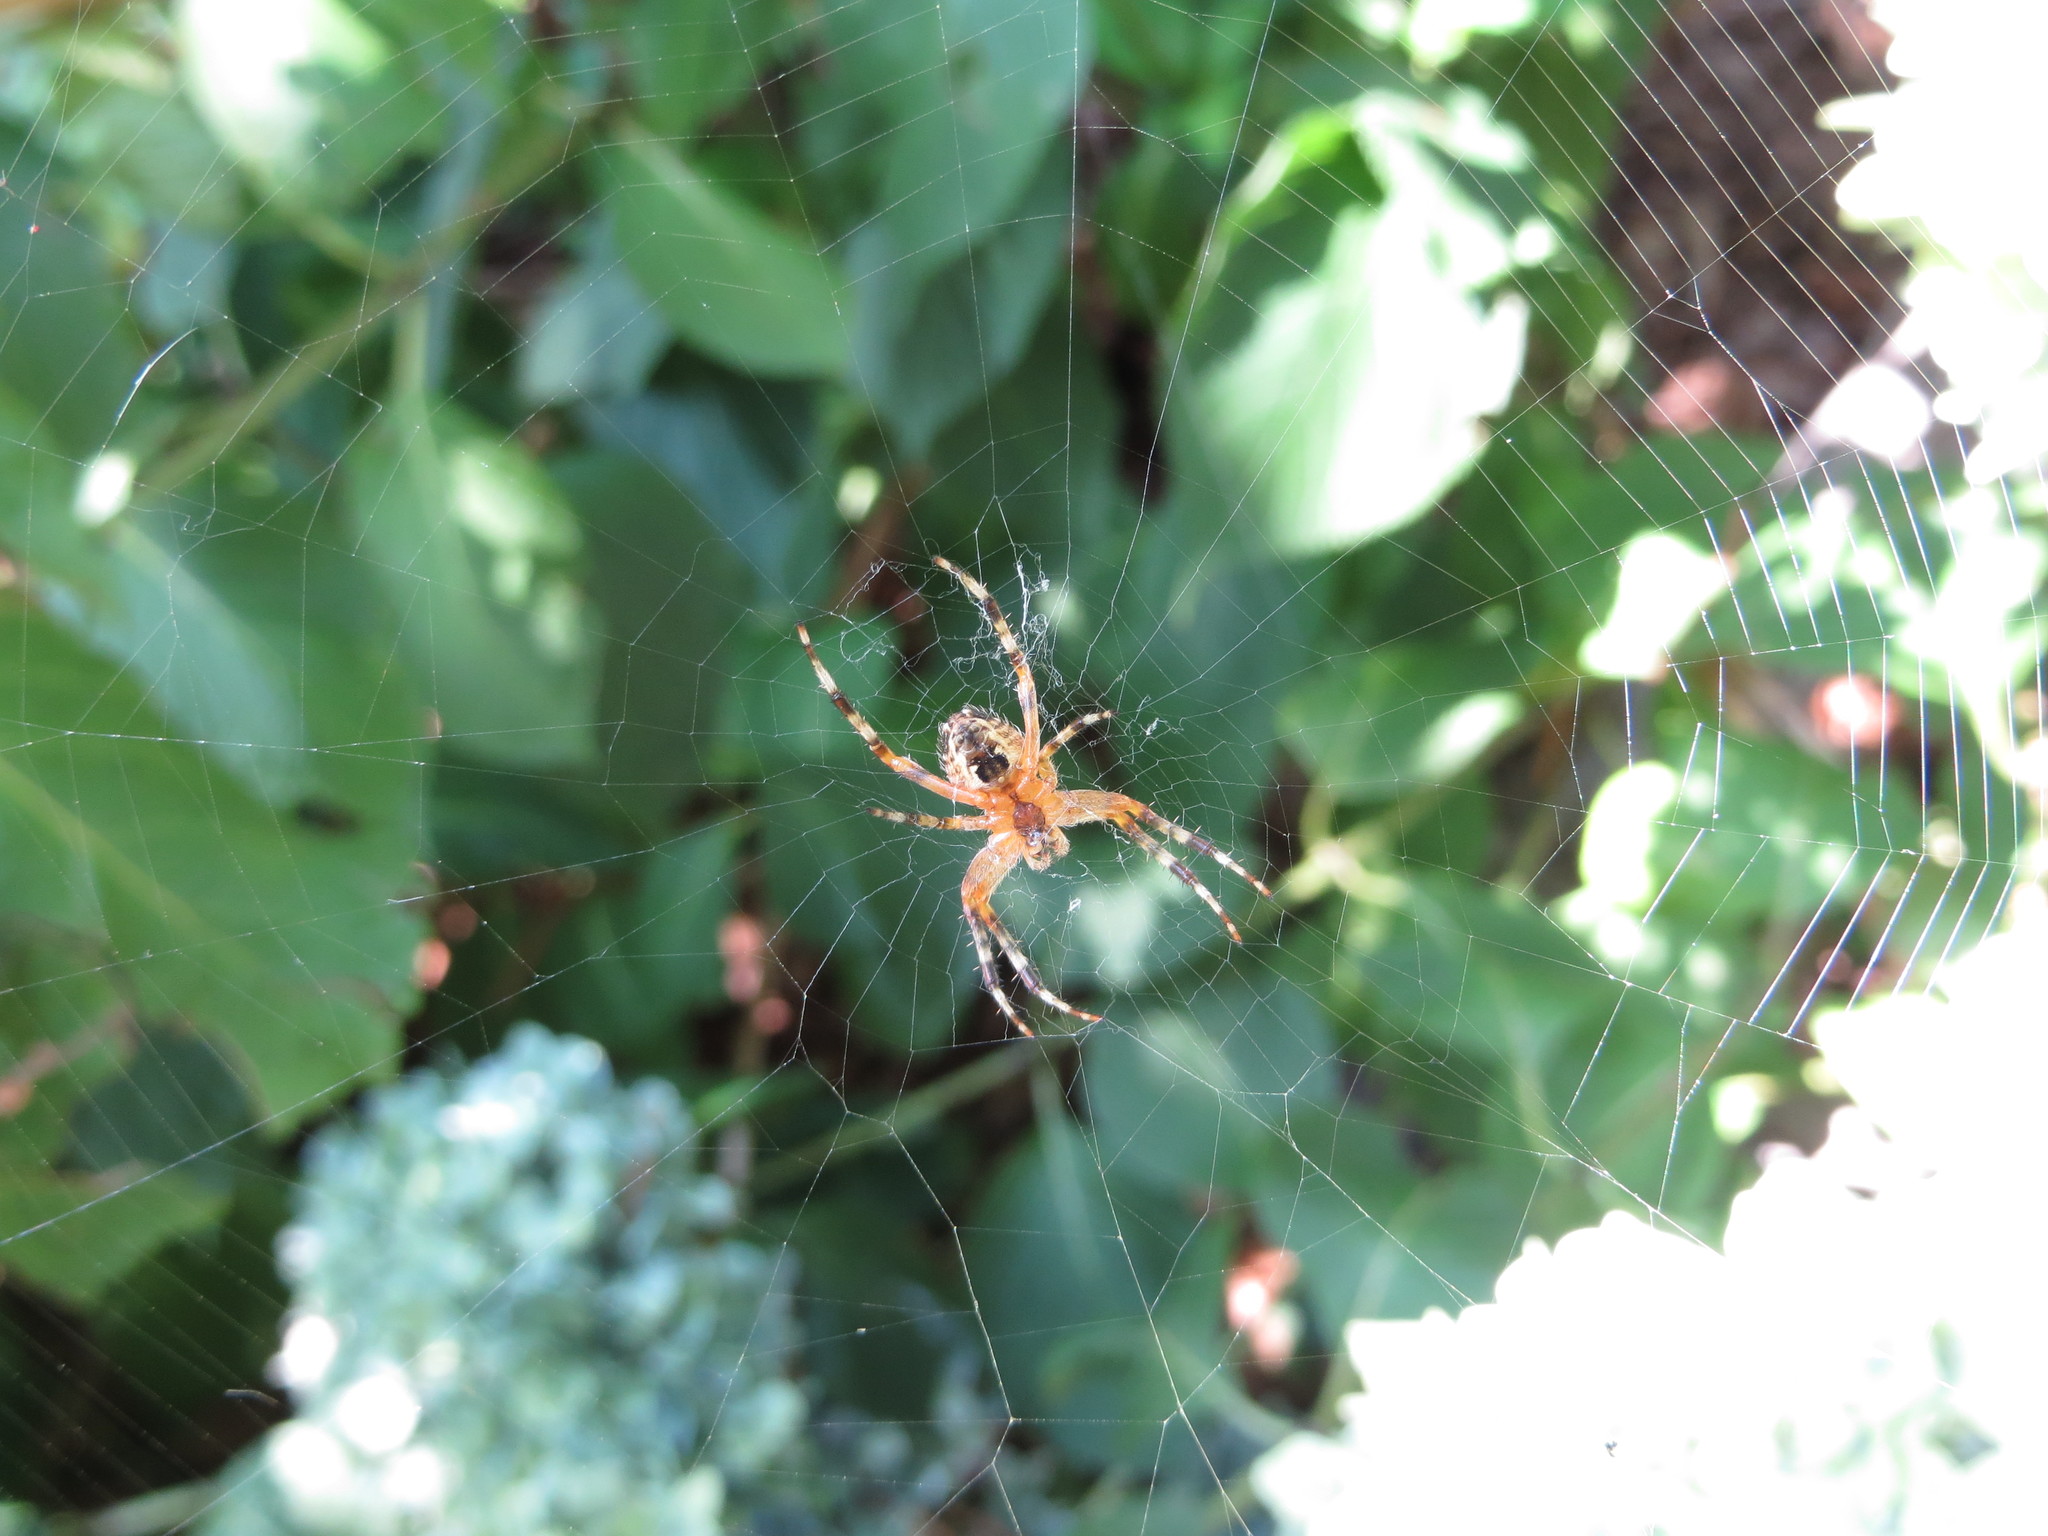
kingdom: Animalia
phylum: Arthropoda
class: Arachnida
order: Araneae
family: Araneidae
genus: Araneus
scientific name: Araneus diadematus
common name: Cross orbweaver
